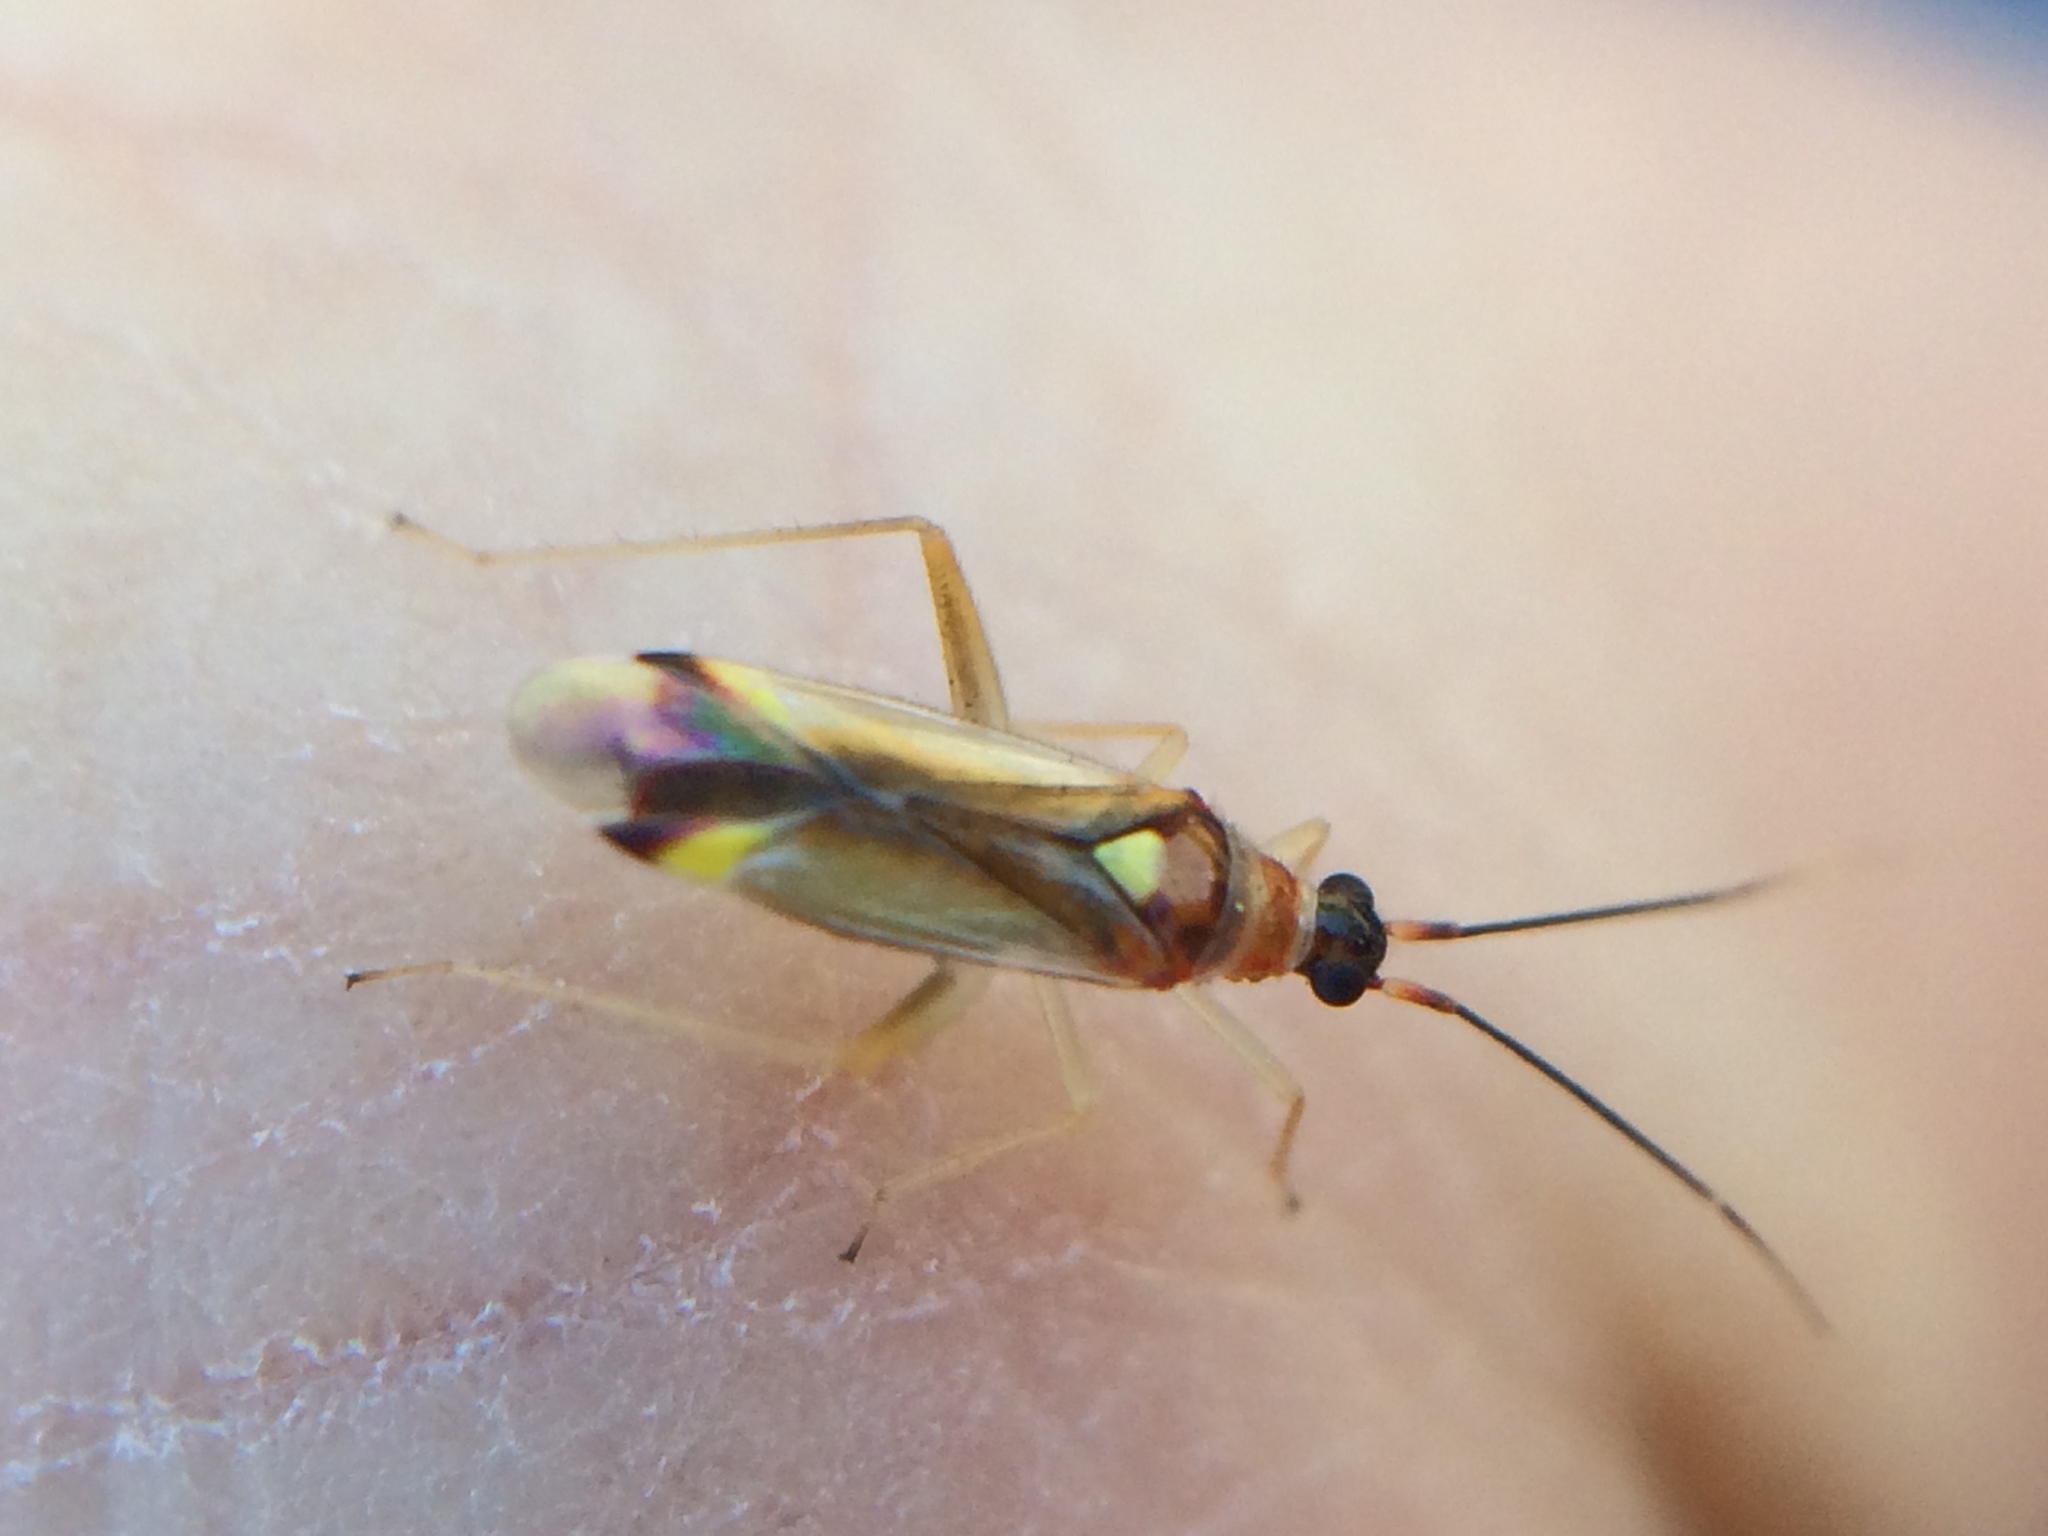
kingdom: Animalia
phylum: Arthropoda
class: Insecta
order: Hemiptera
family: Miridae
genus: Campyloneura
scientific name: Campyloneura virgula
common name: Predatory bug
